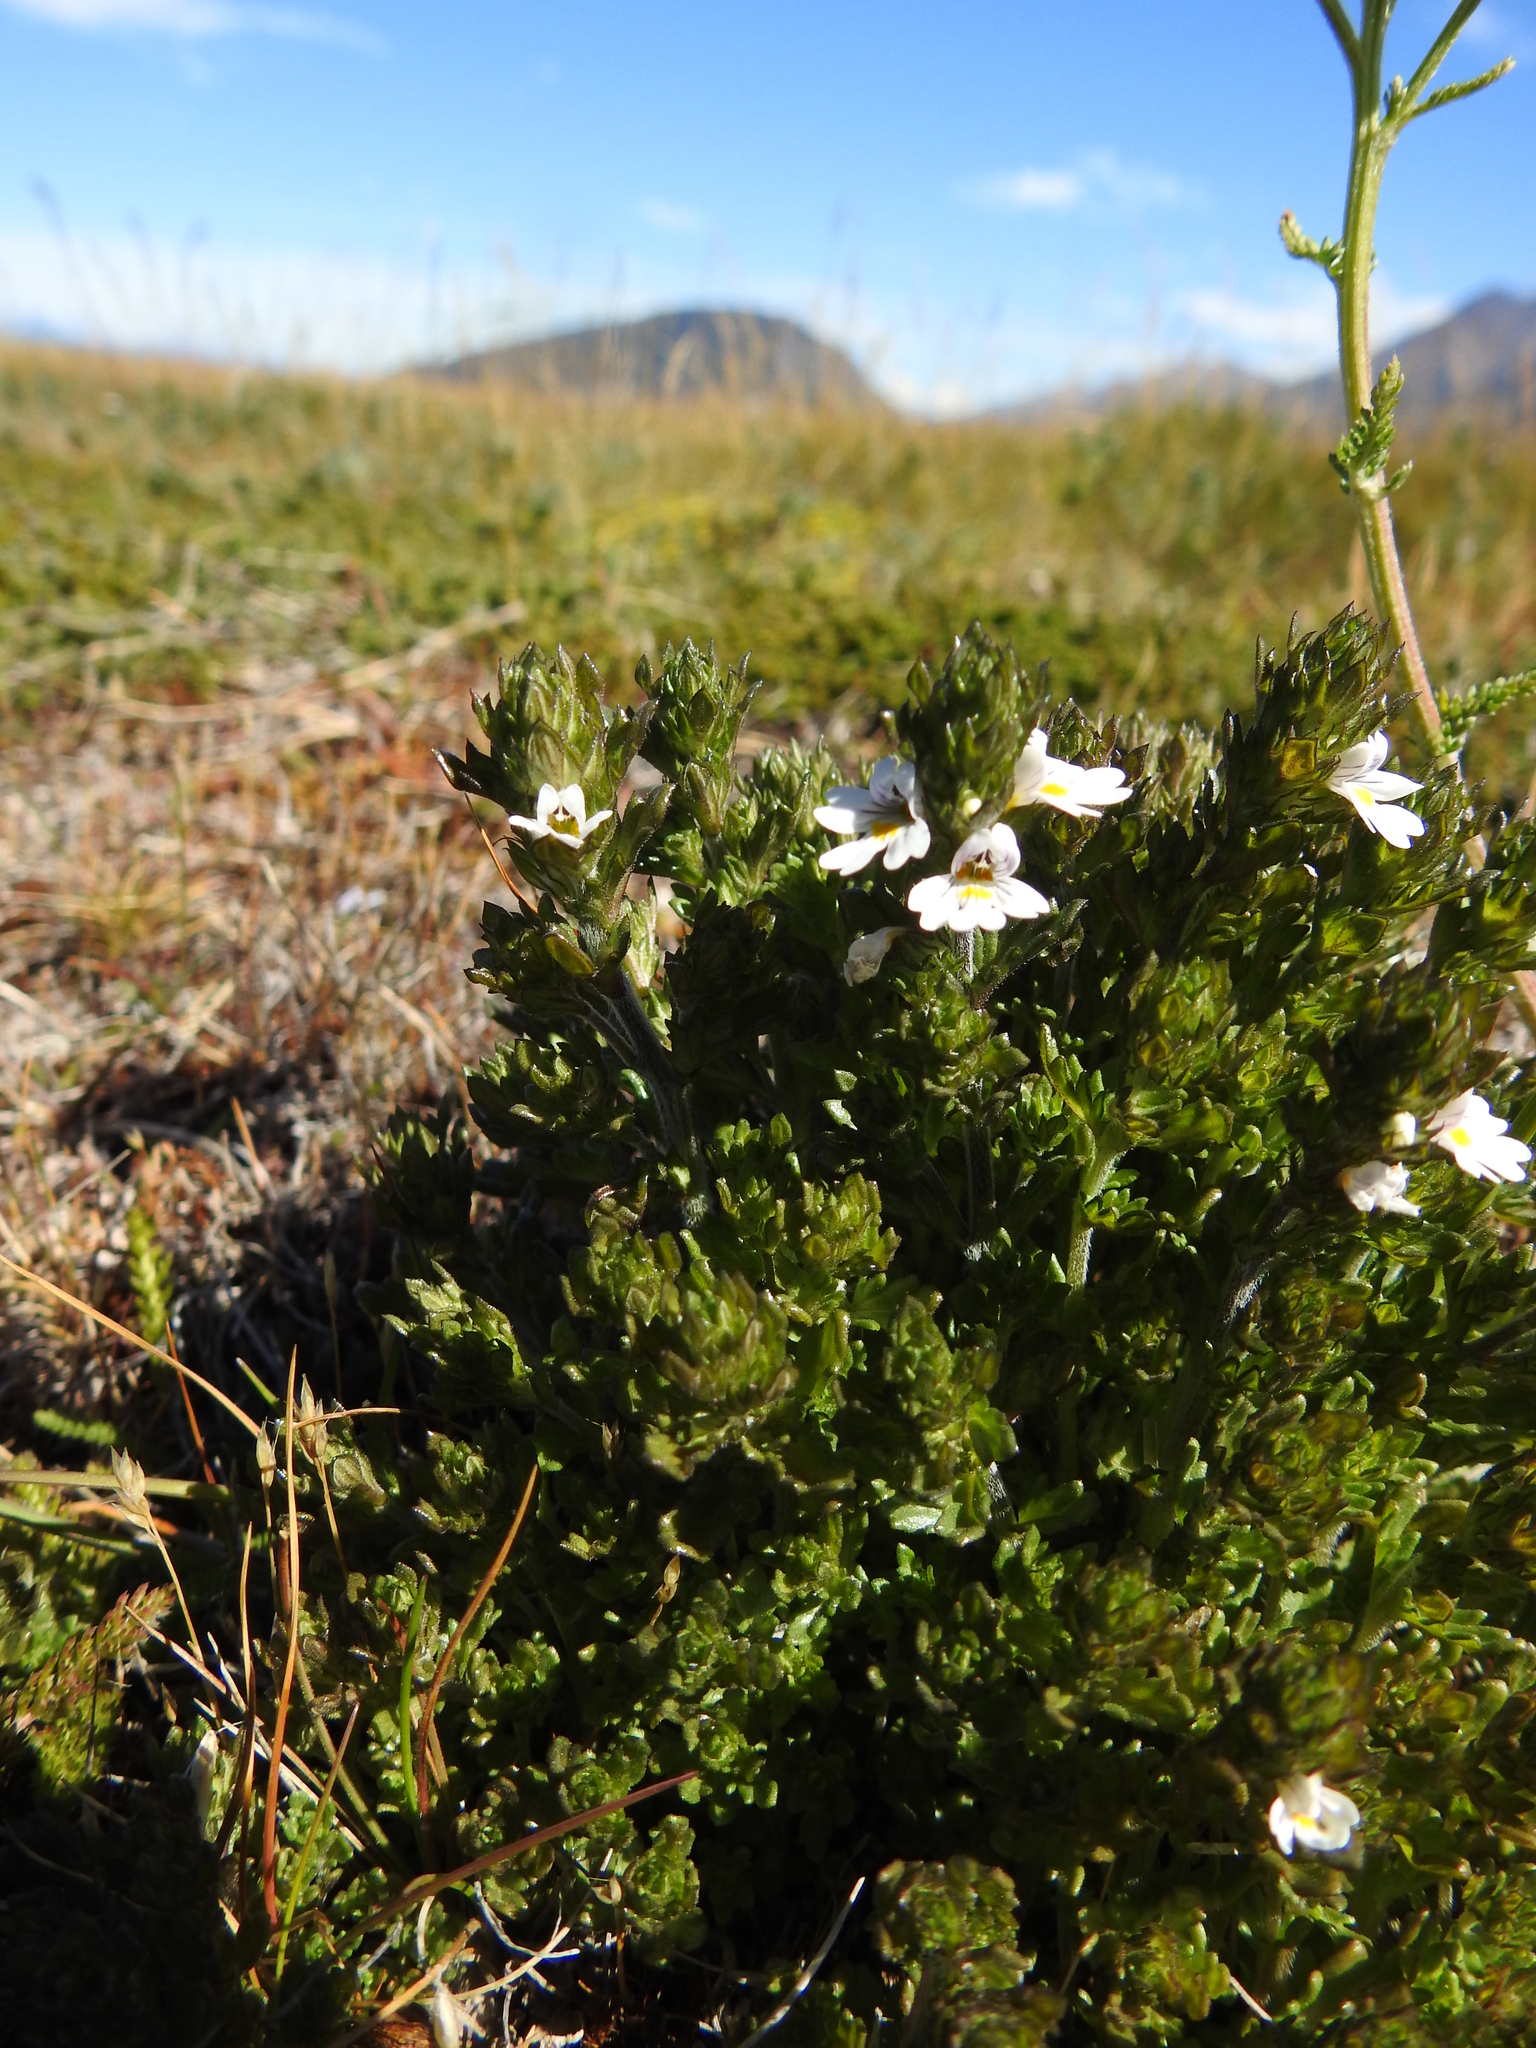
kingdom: Plantae
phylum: Tracheophyta
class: Magnoliopsida
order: Lamiales
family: Orobanchaceae
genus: Euphrasia
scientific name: Euphrasia officinalis
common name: Eyebright
